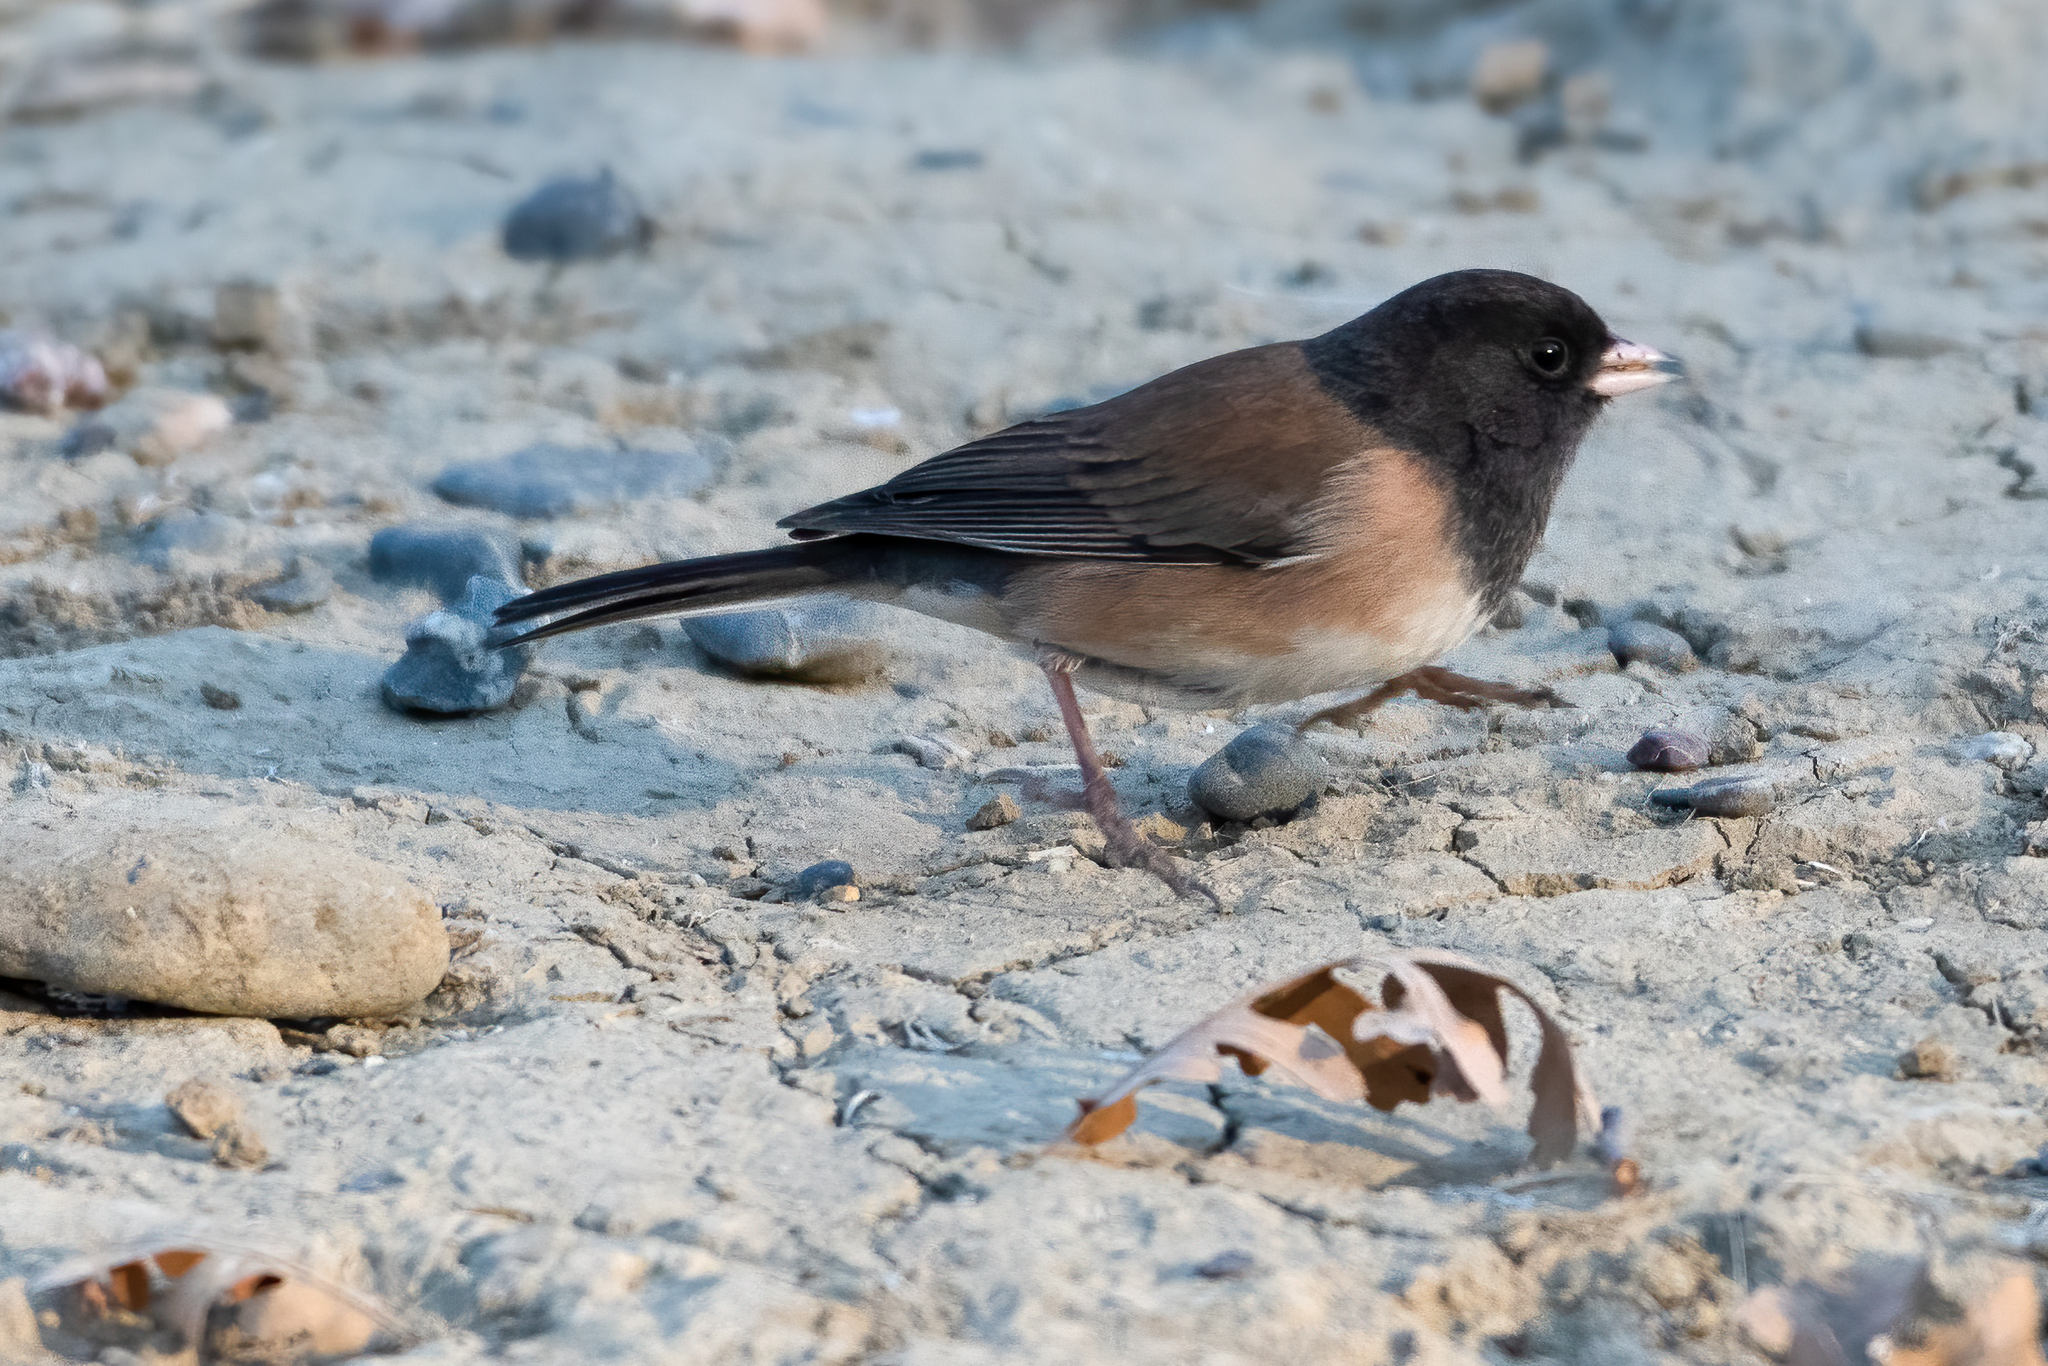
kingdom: Animalia
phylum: Chordata
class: Aves
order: Passeriformes
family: Passerellidae
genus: Junco
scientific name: Junco hyemalis
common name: Dark-eyed junco
